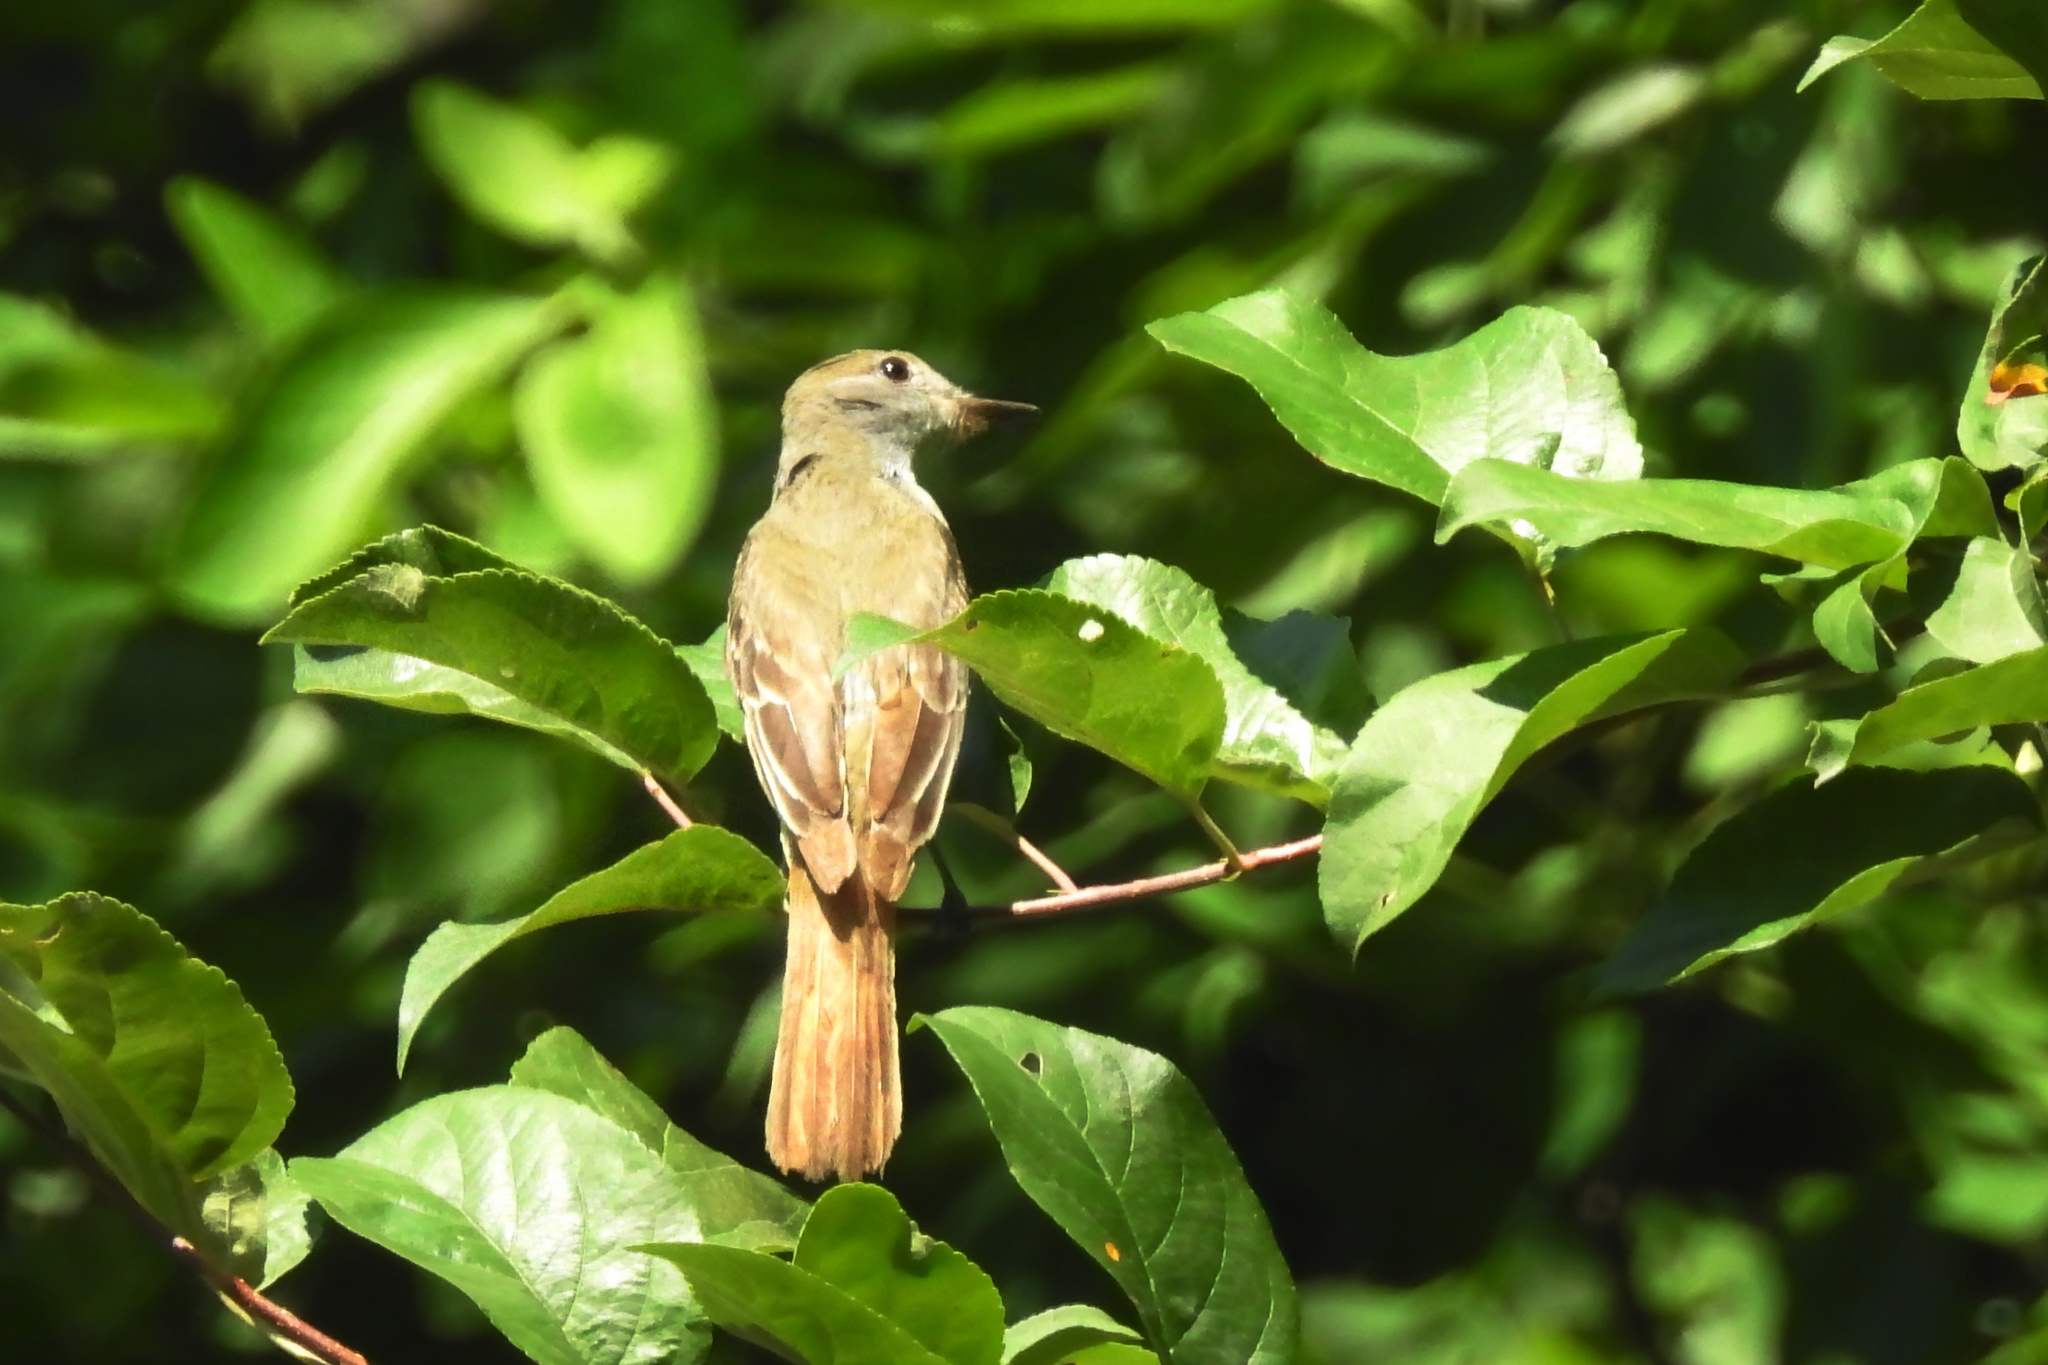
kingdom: Animalia
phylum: Chordata
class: Aves
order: Passeriformes
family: Tyrannidae
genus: Myiarchus
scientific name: Myiarchus crinitus
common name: Great crested flycatcher
